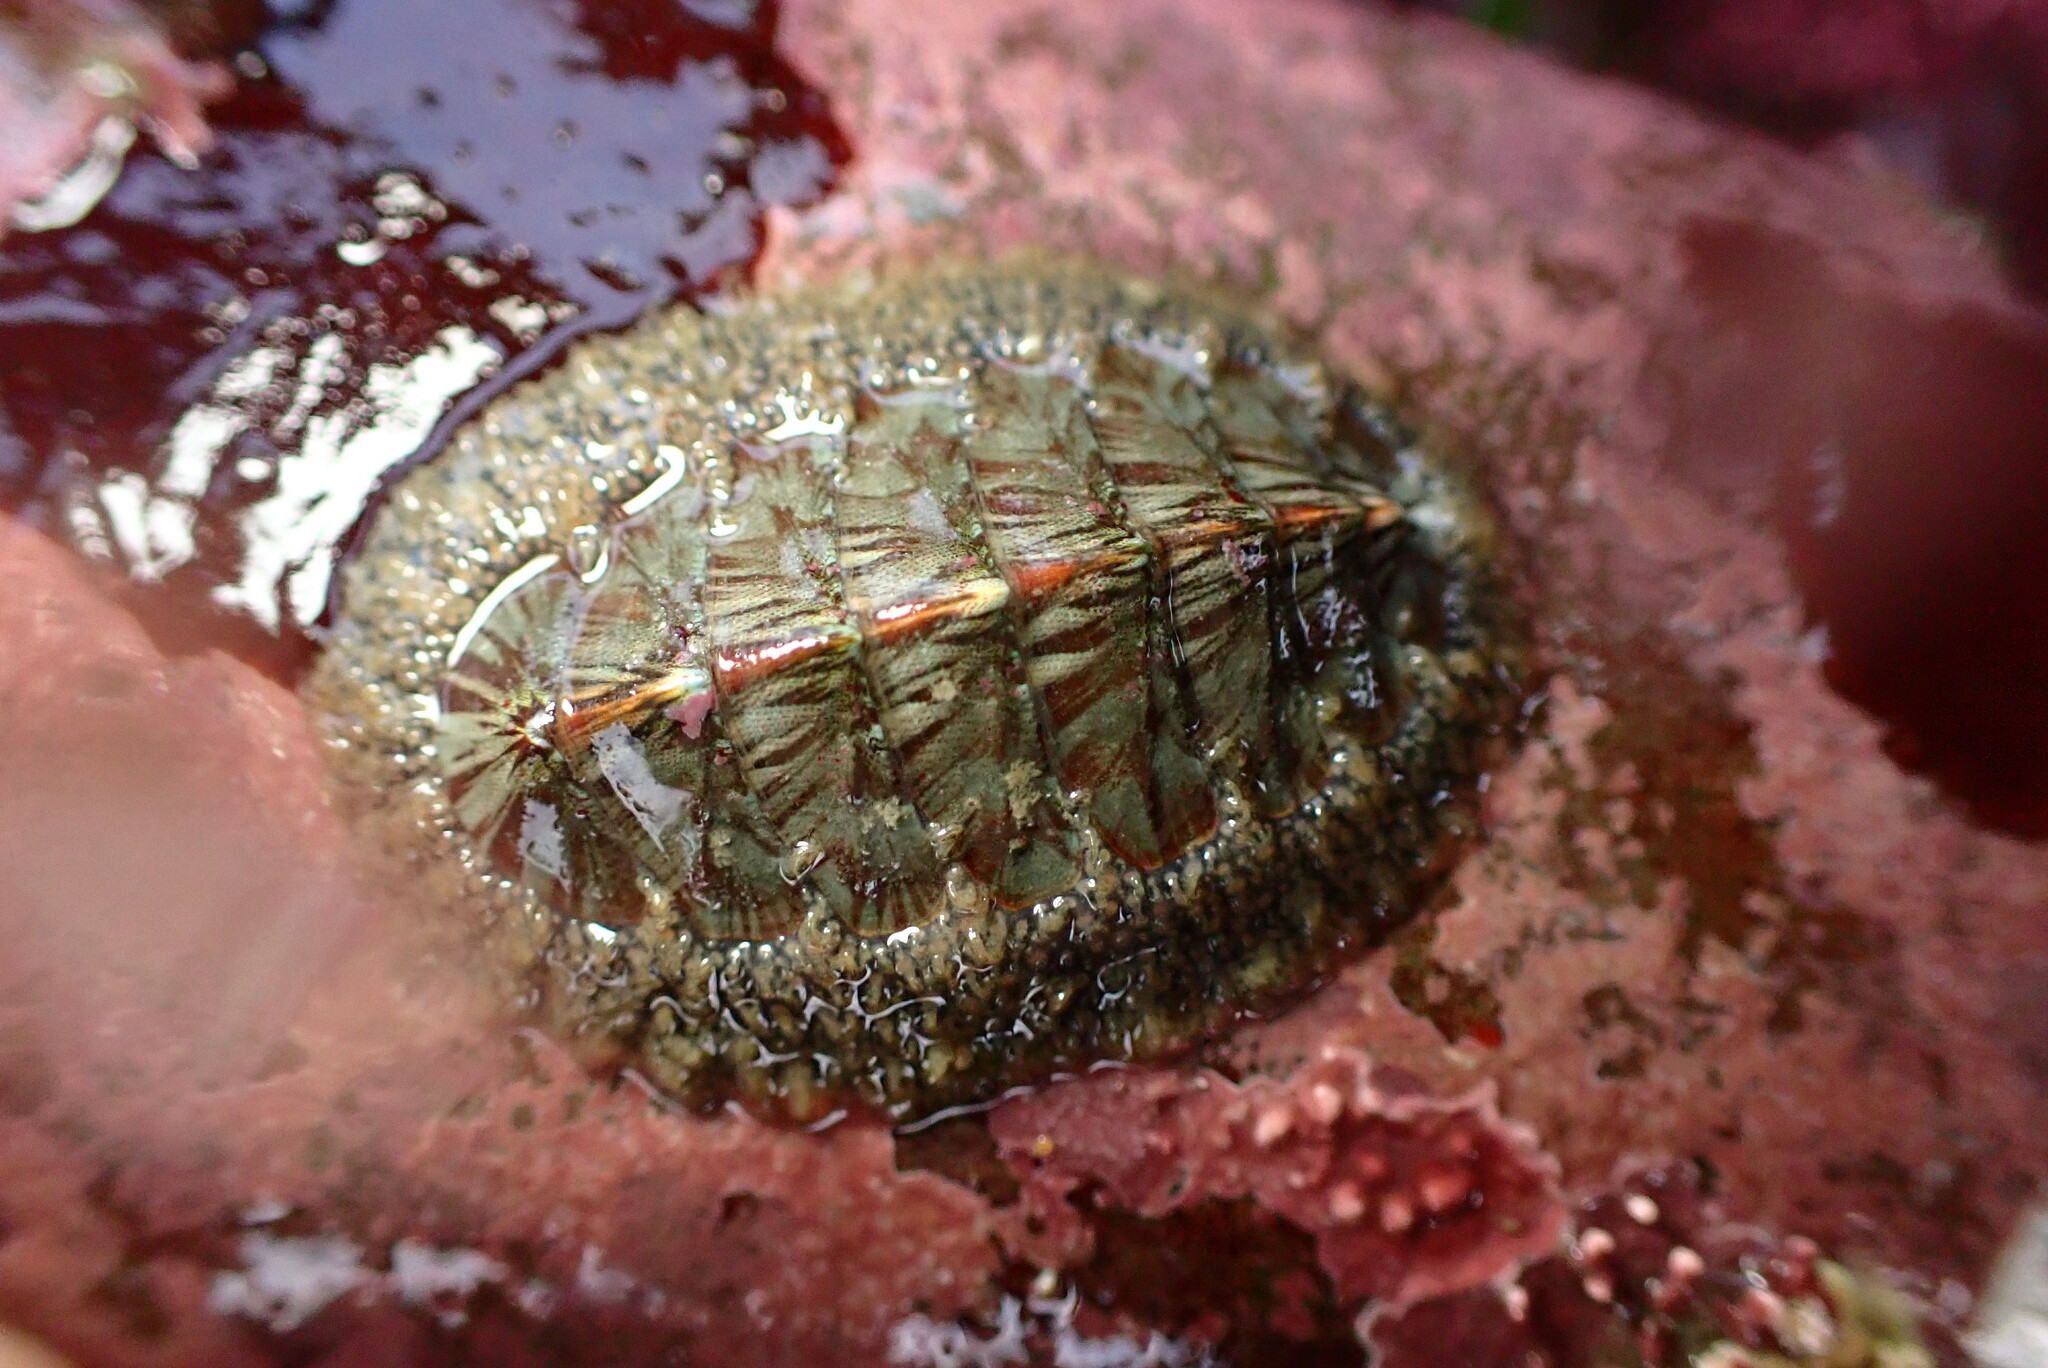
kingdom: Animalia
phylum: Mollusca
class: Polyplacophora
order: Chitonida
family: Mopaliidae
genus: Mopalia
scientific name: Mopalia lignosa
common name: Woody chiton
